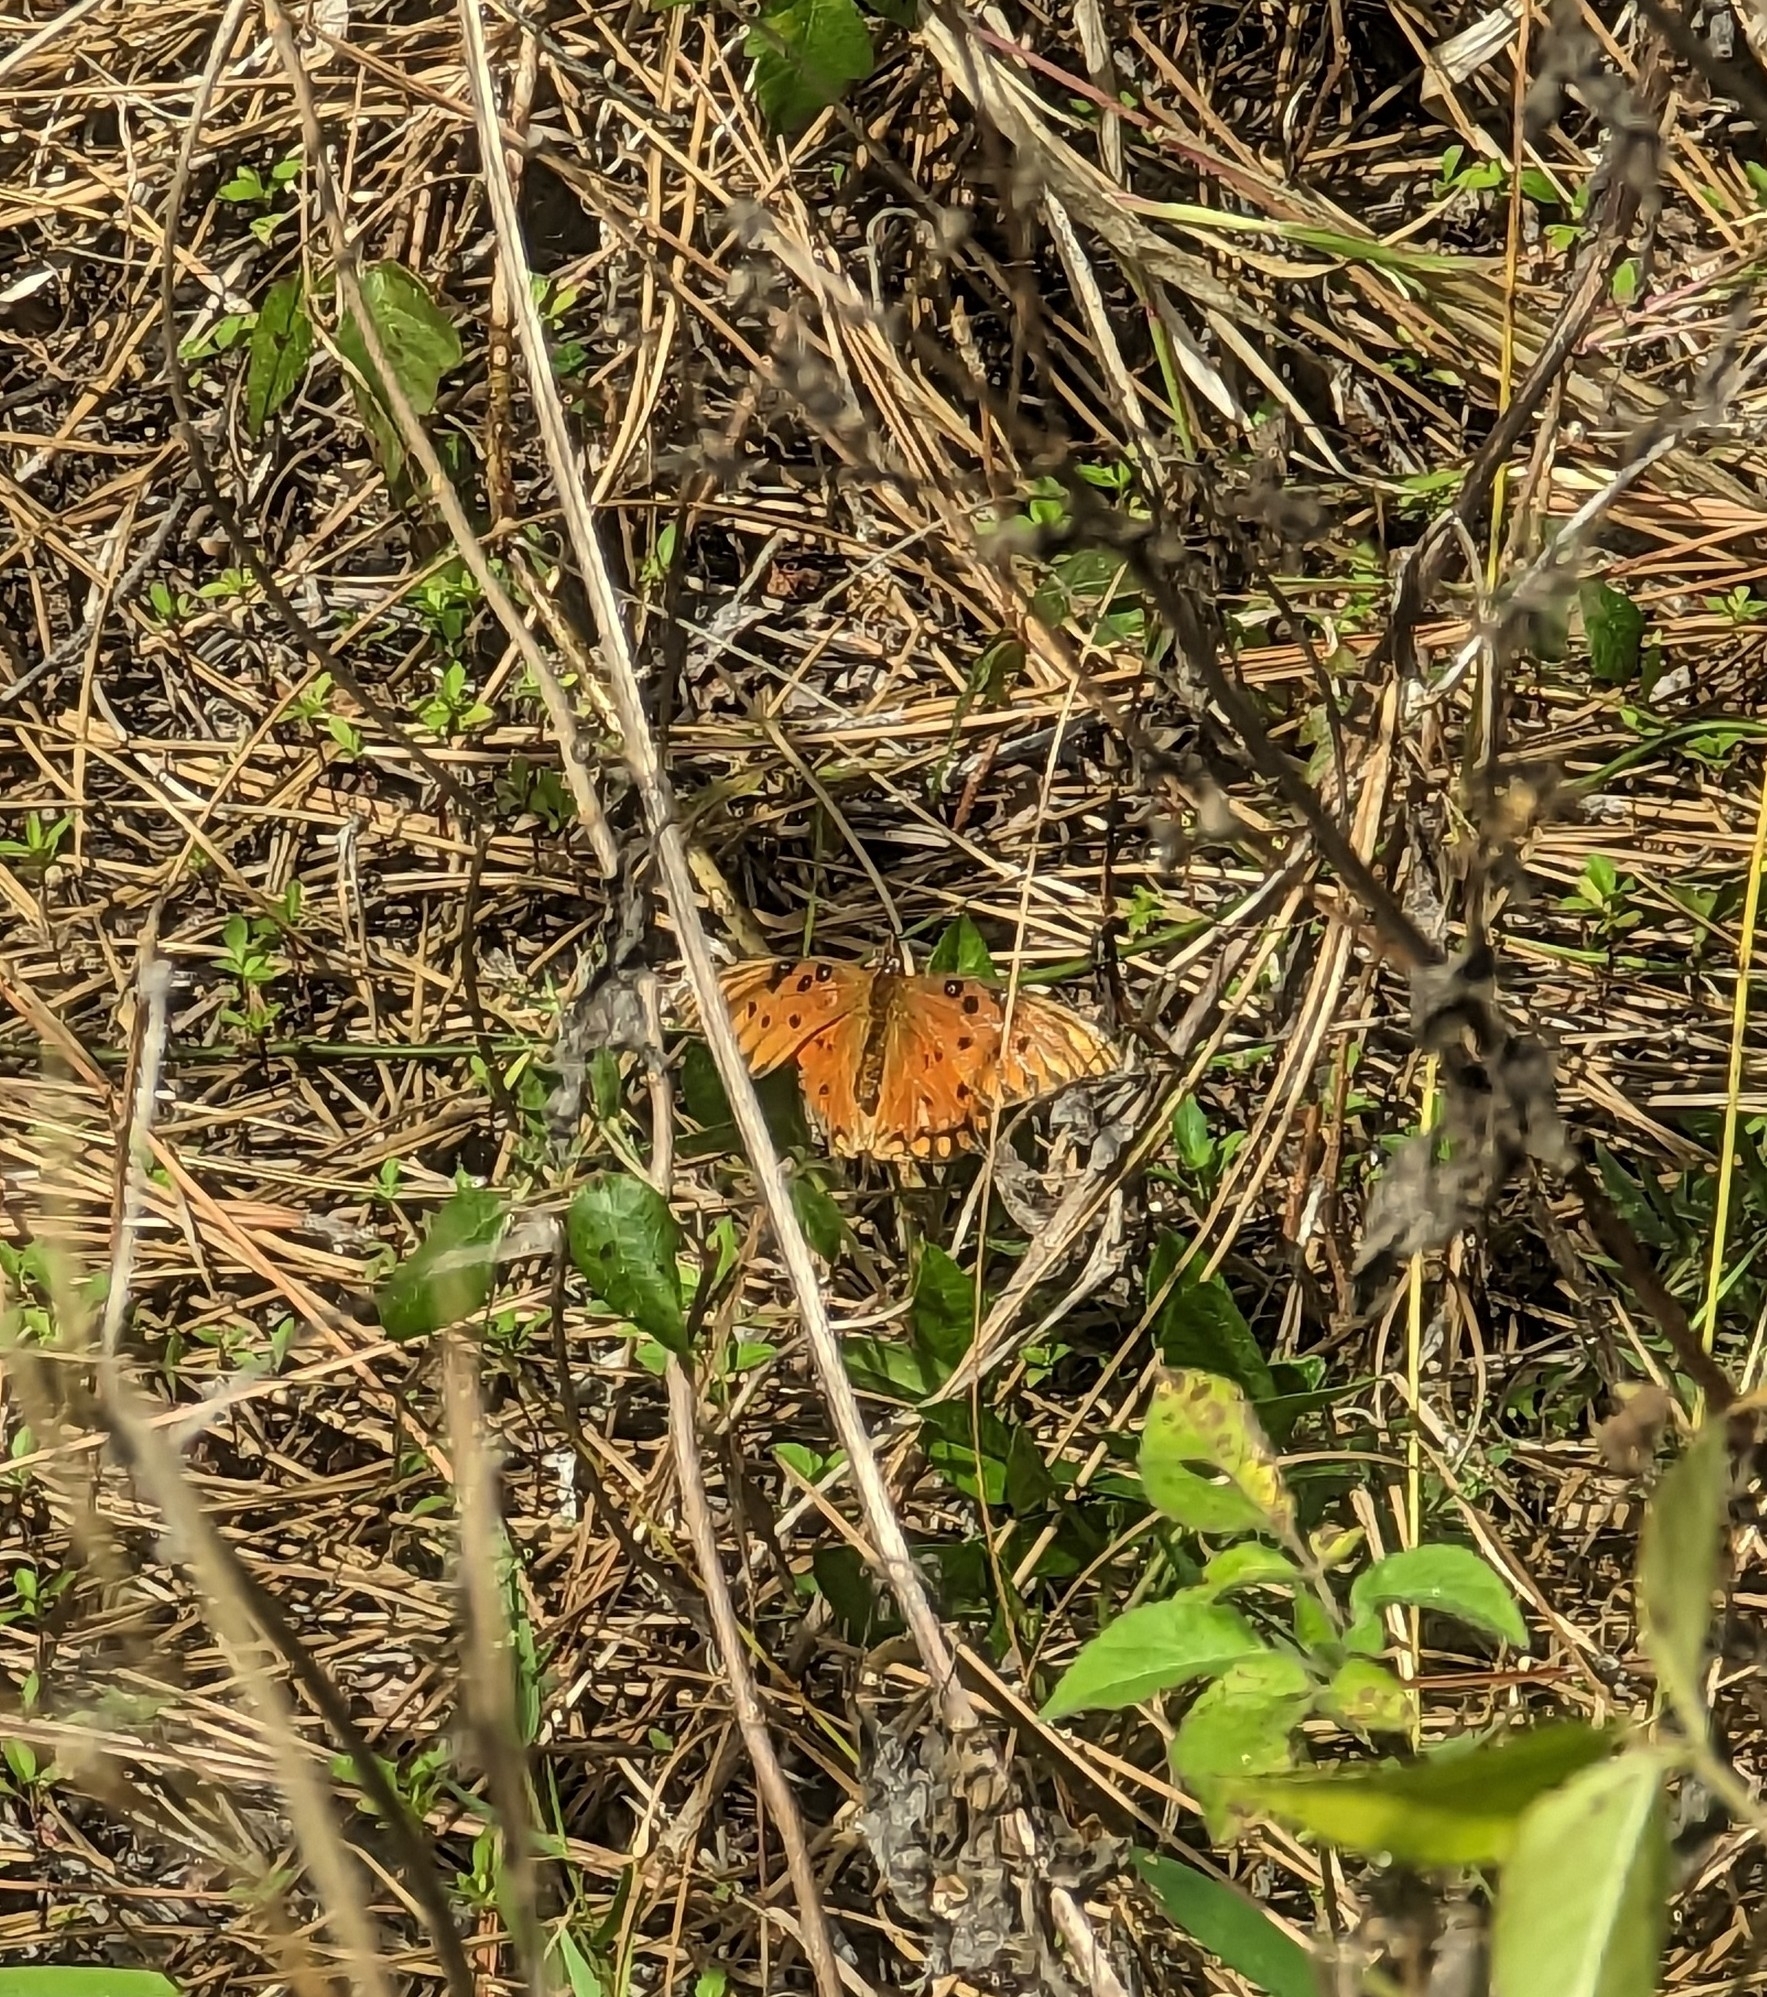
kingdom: Animalia
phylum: Arthropoda
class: Insecta
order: Lepidoptera
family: Nymphalidae
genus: Dione
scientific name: Dione vanillae
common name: Gulf fritillary
